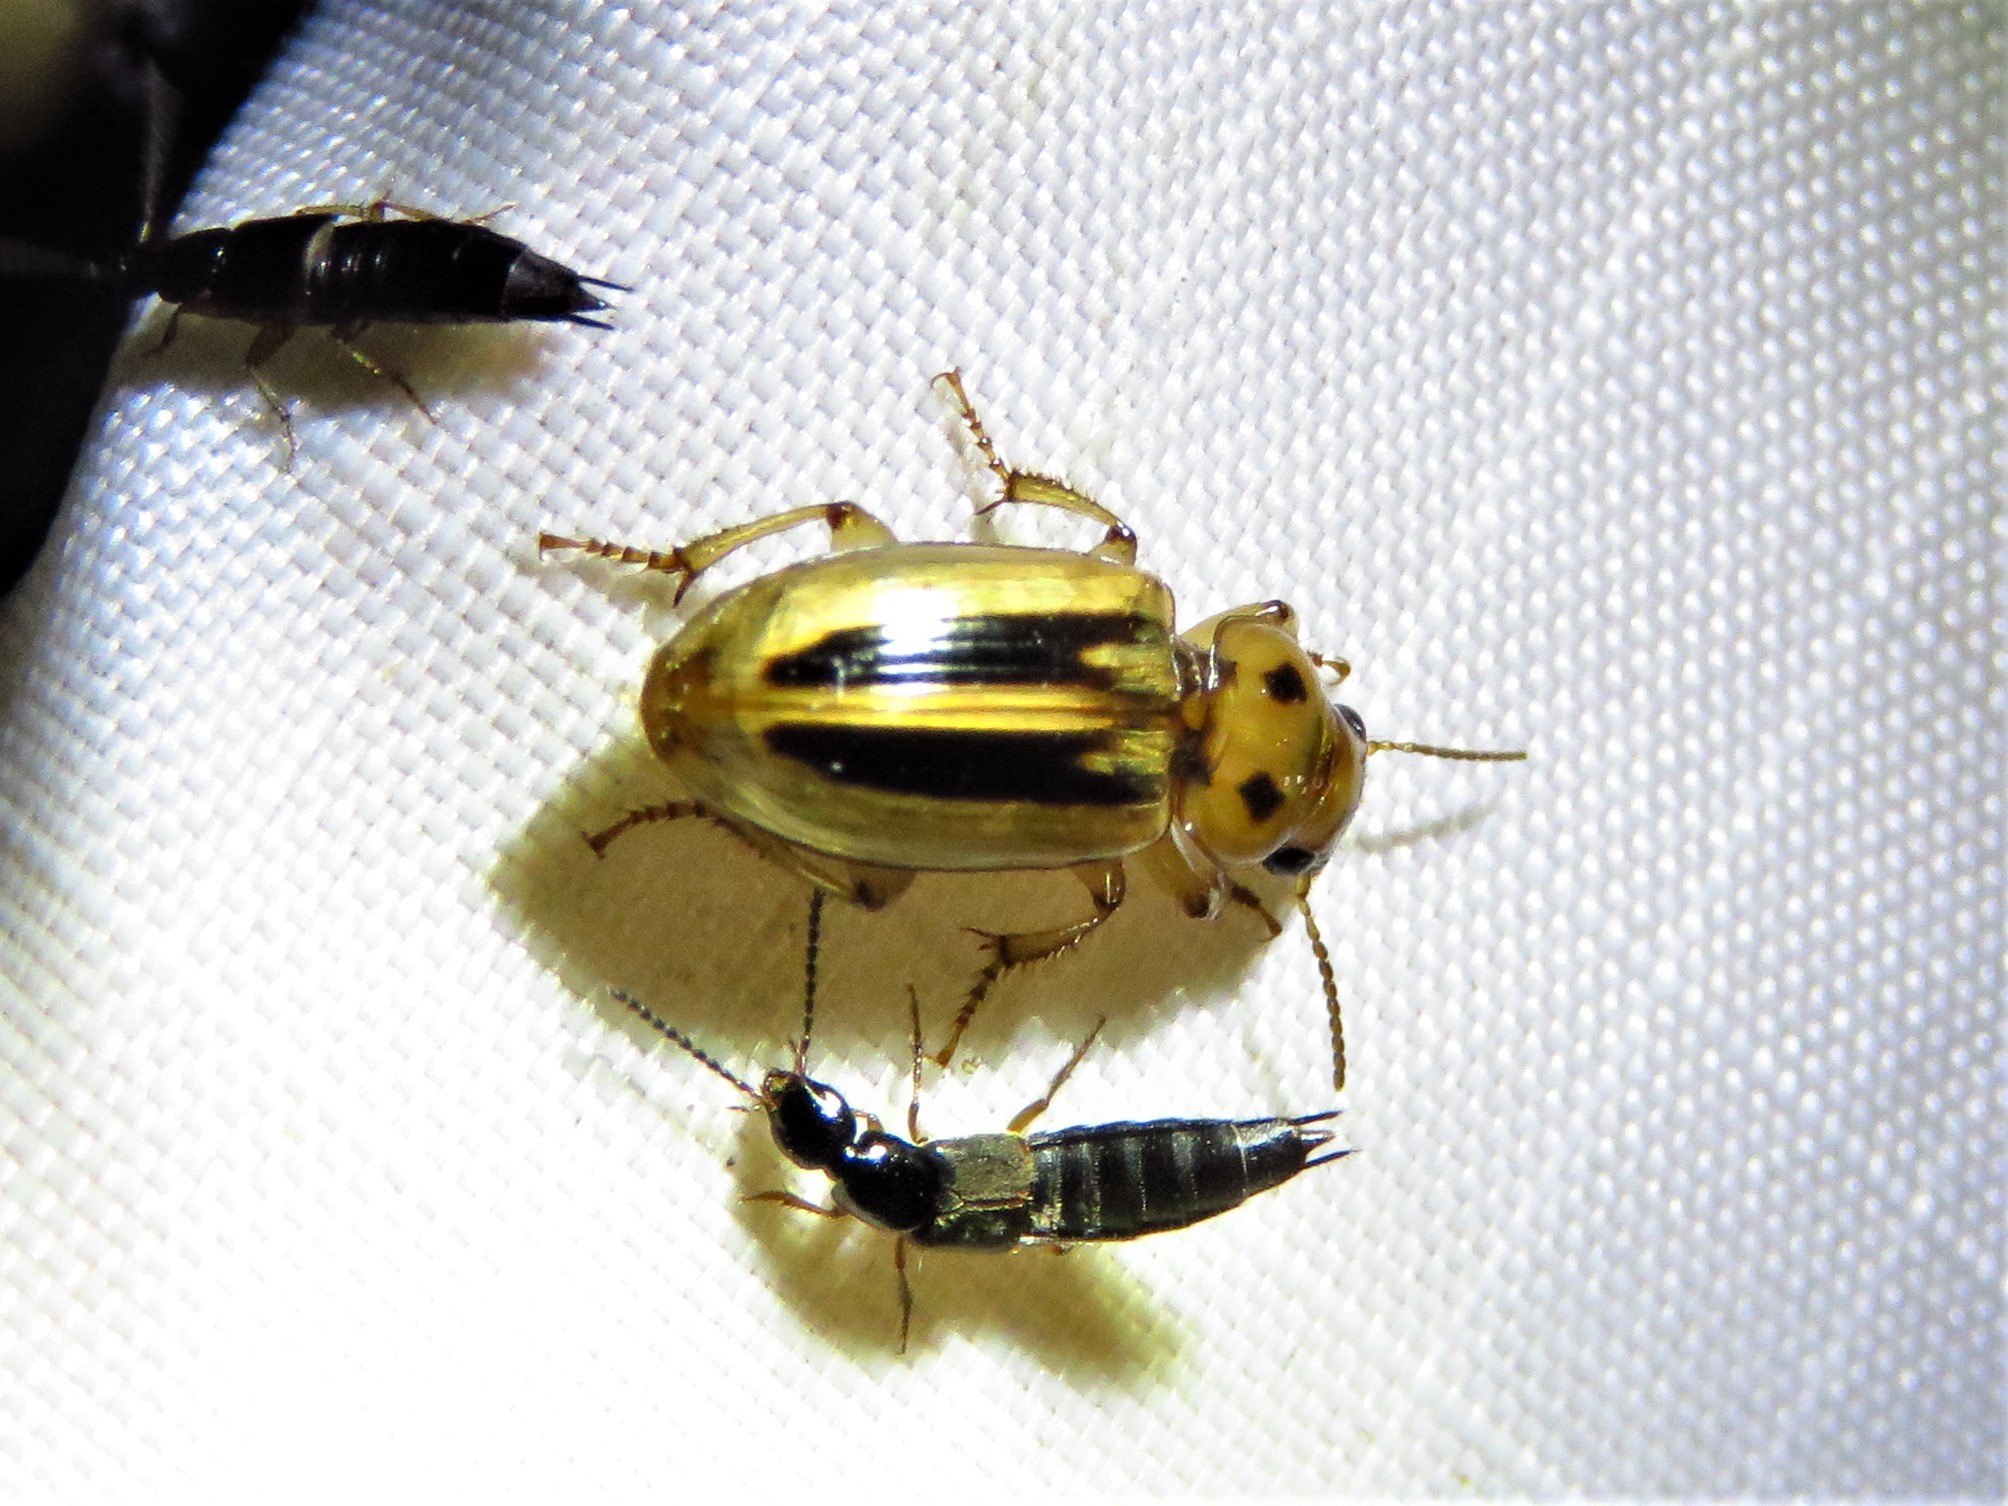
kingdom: Animalia
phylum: Arthropoda
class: Insecta
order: Coleoptera
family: Carabidae
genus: Stenolophus
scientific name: Stenolophus lineola
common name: Lined stenolophus
